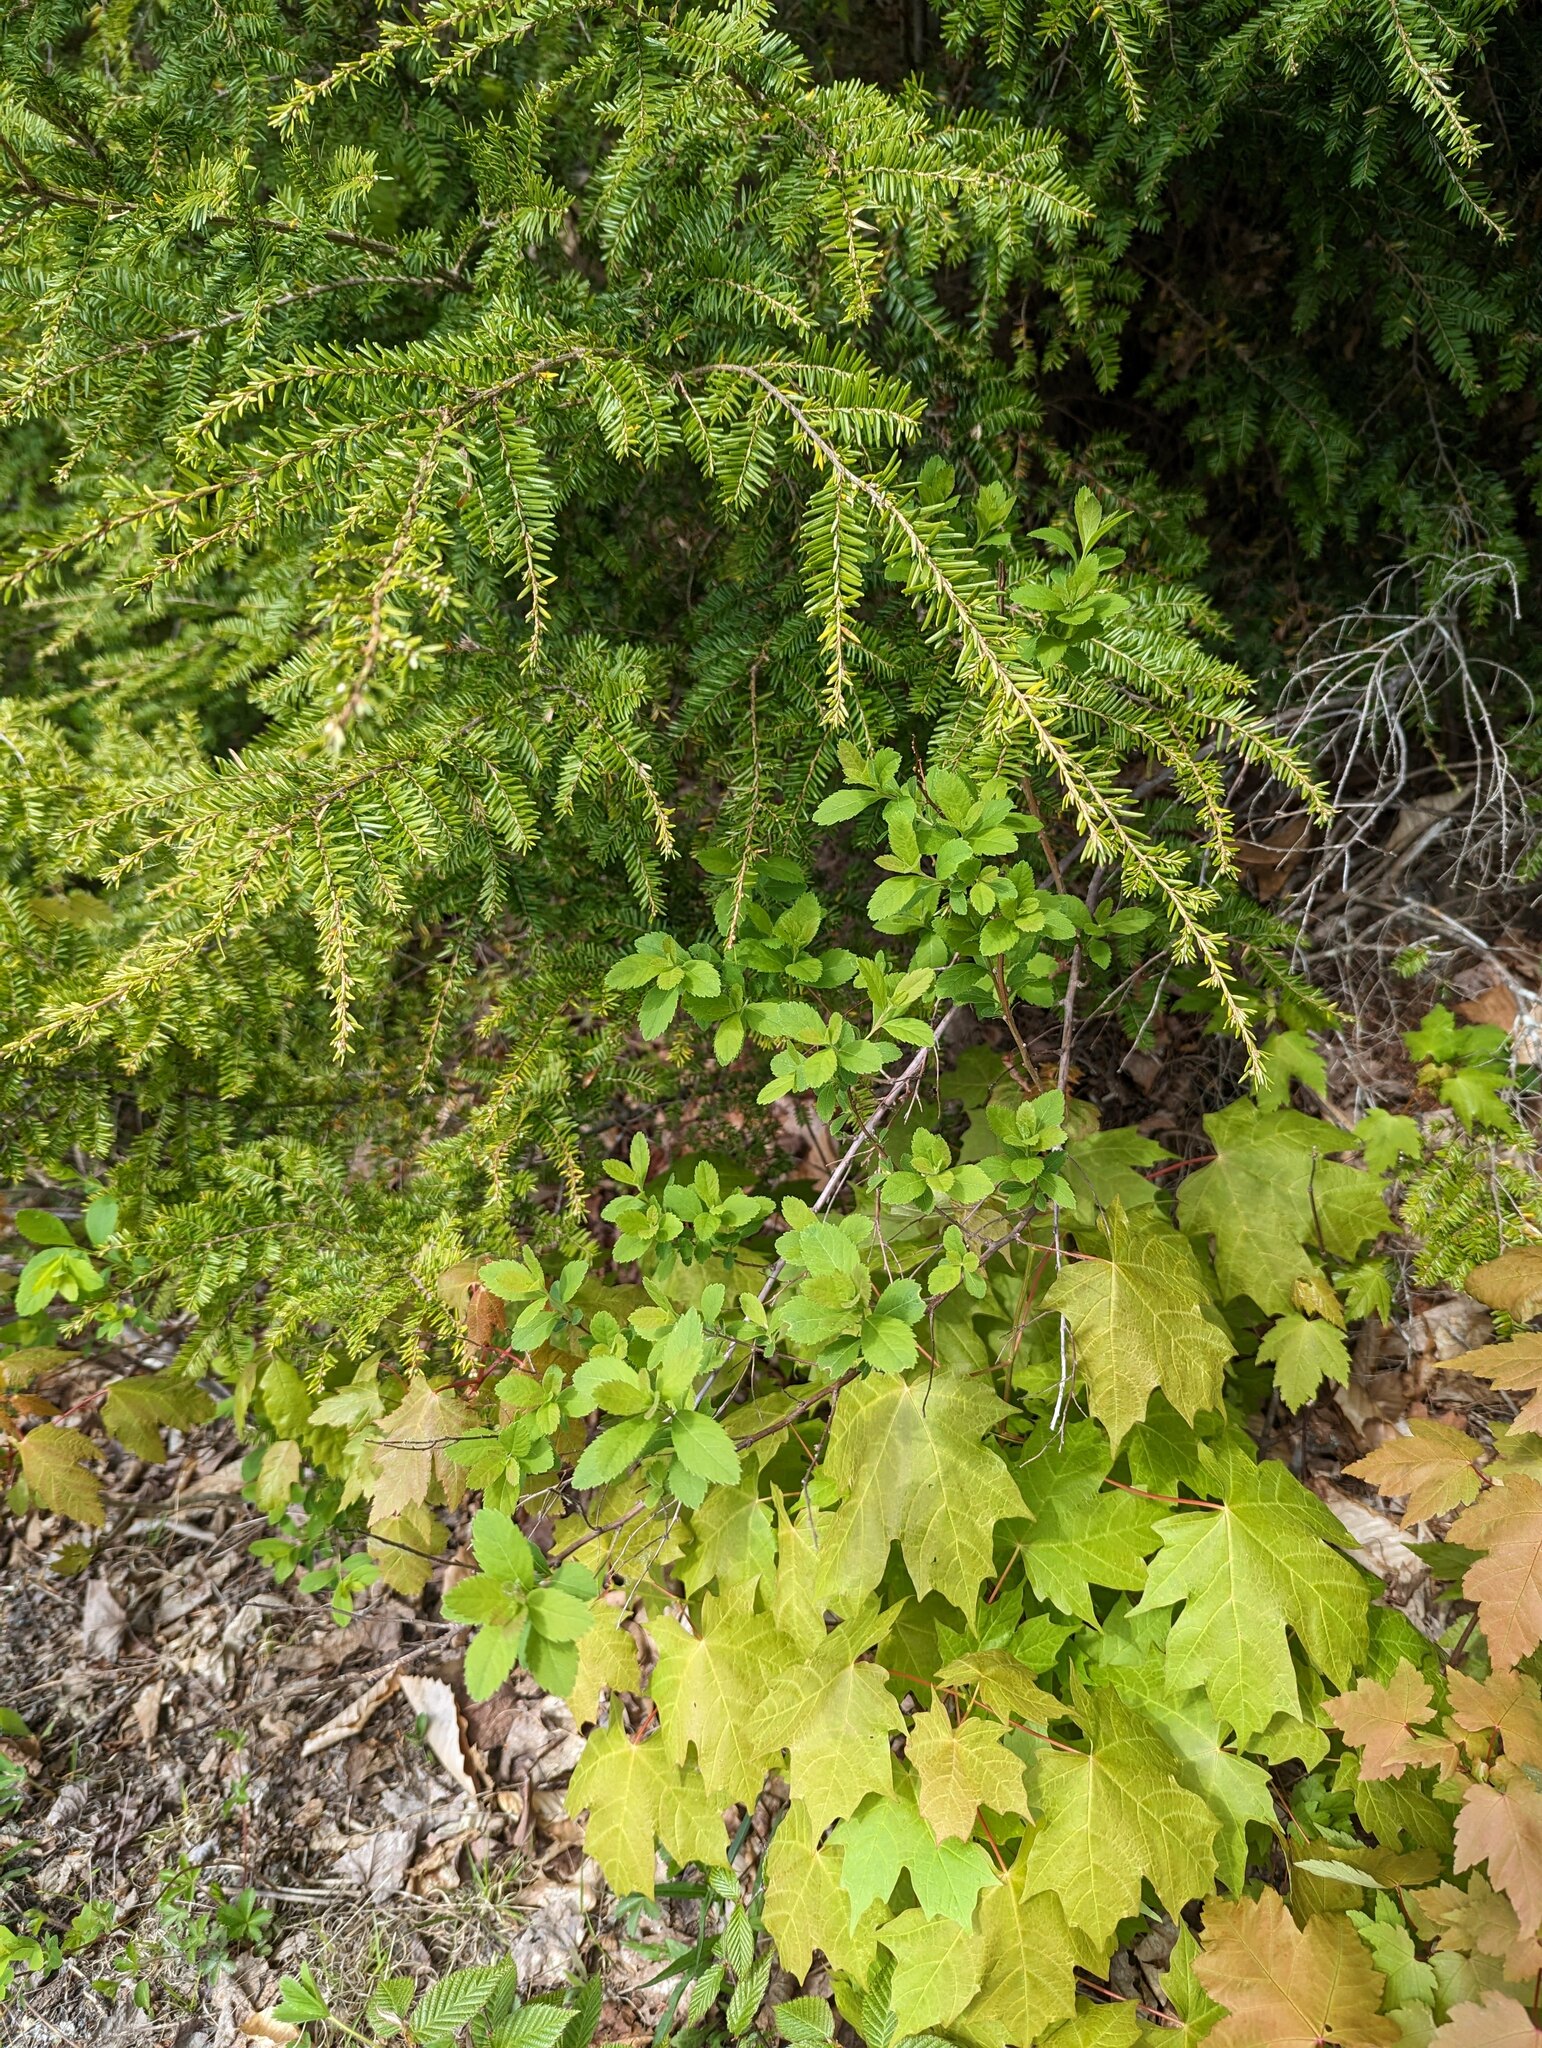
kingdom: Plantae
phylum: Tracheophyta
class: Magnoliopsida
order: Rosales
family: Rosaceae
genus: Spiraea
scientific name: Spiraea alba
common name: Pale bridewort
